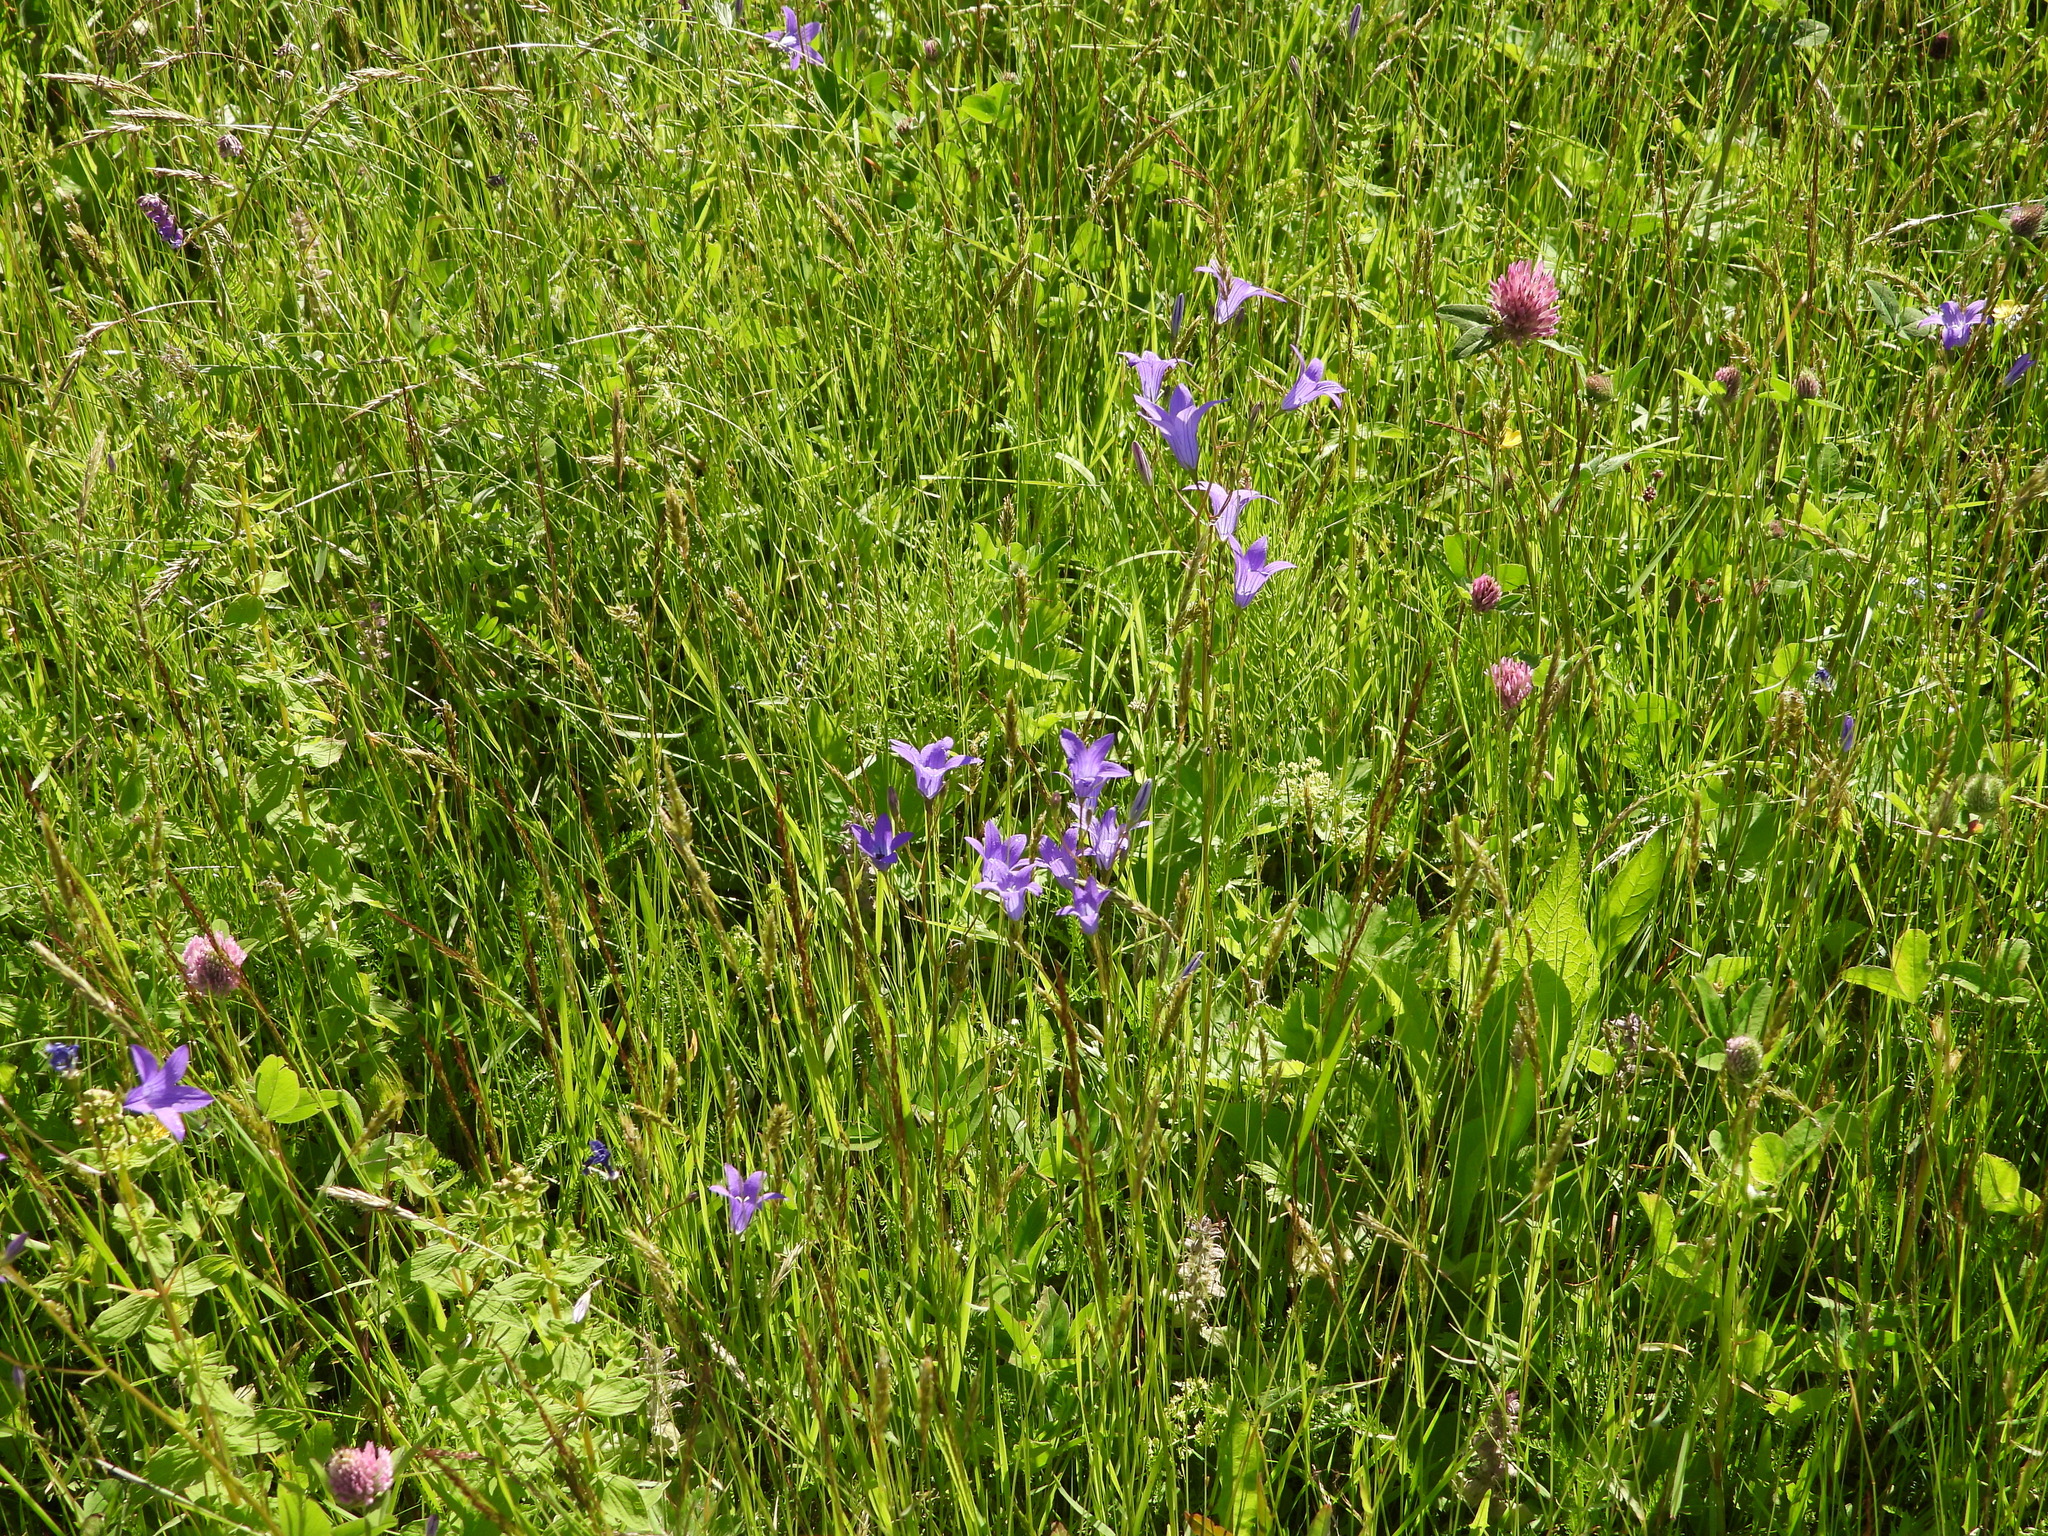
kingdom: Plantae
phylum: Tracheophyta
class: Magnoliopsida
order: Asterales
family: Campanulaceae
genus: Campanula
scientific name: Campanula patula
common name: Spreading bellflower
